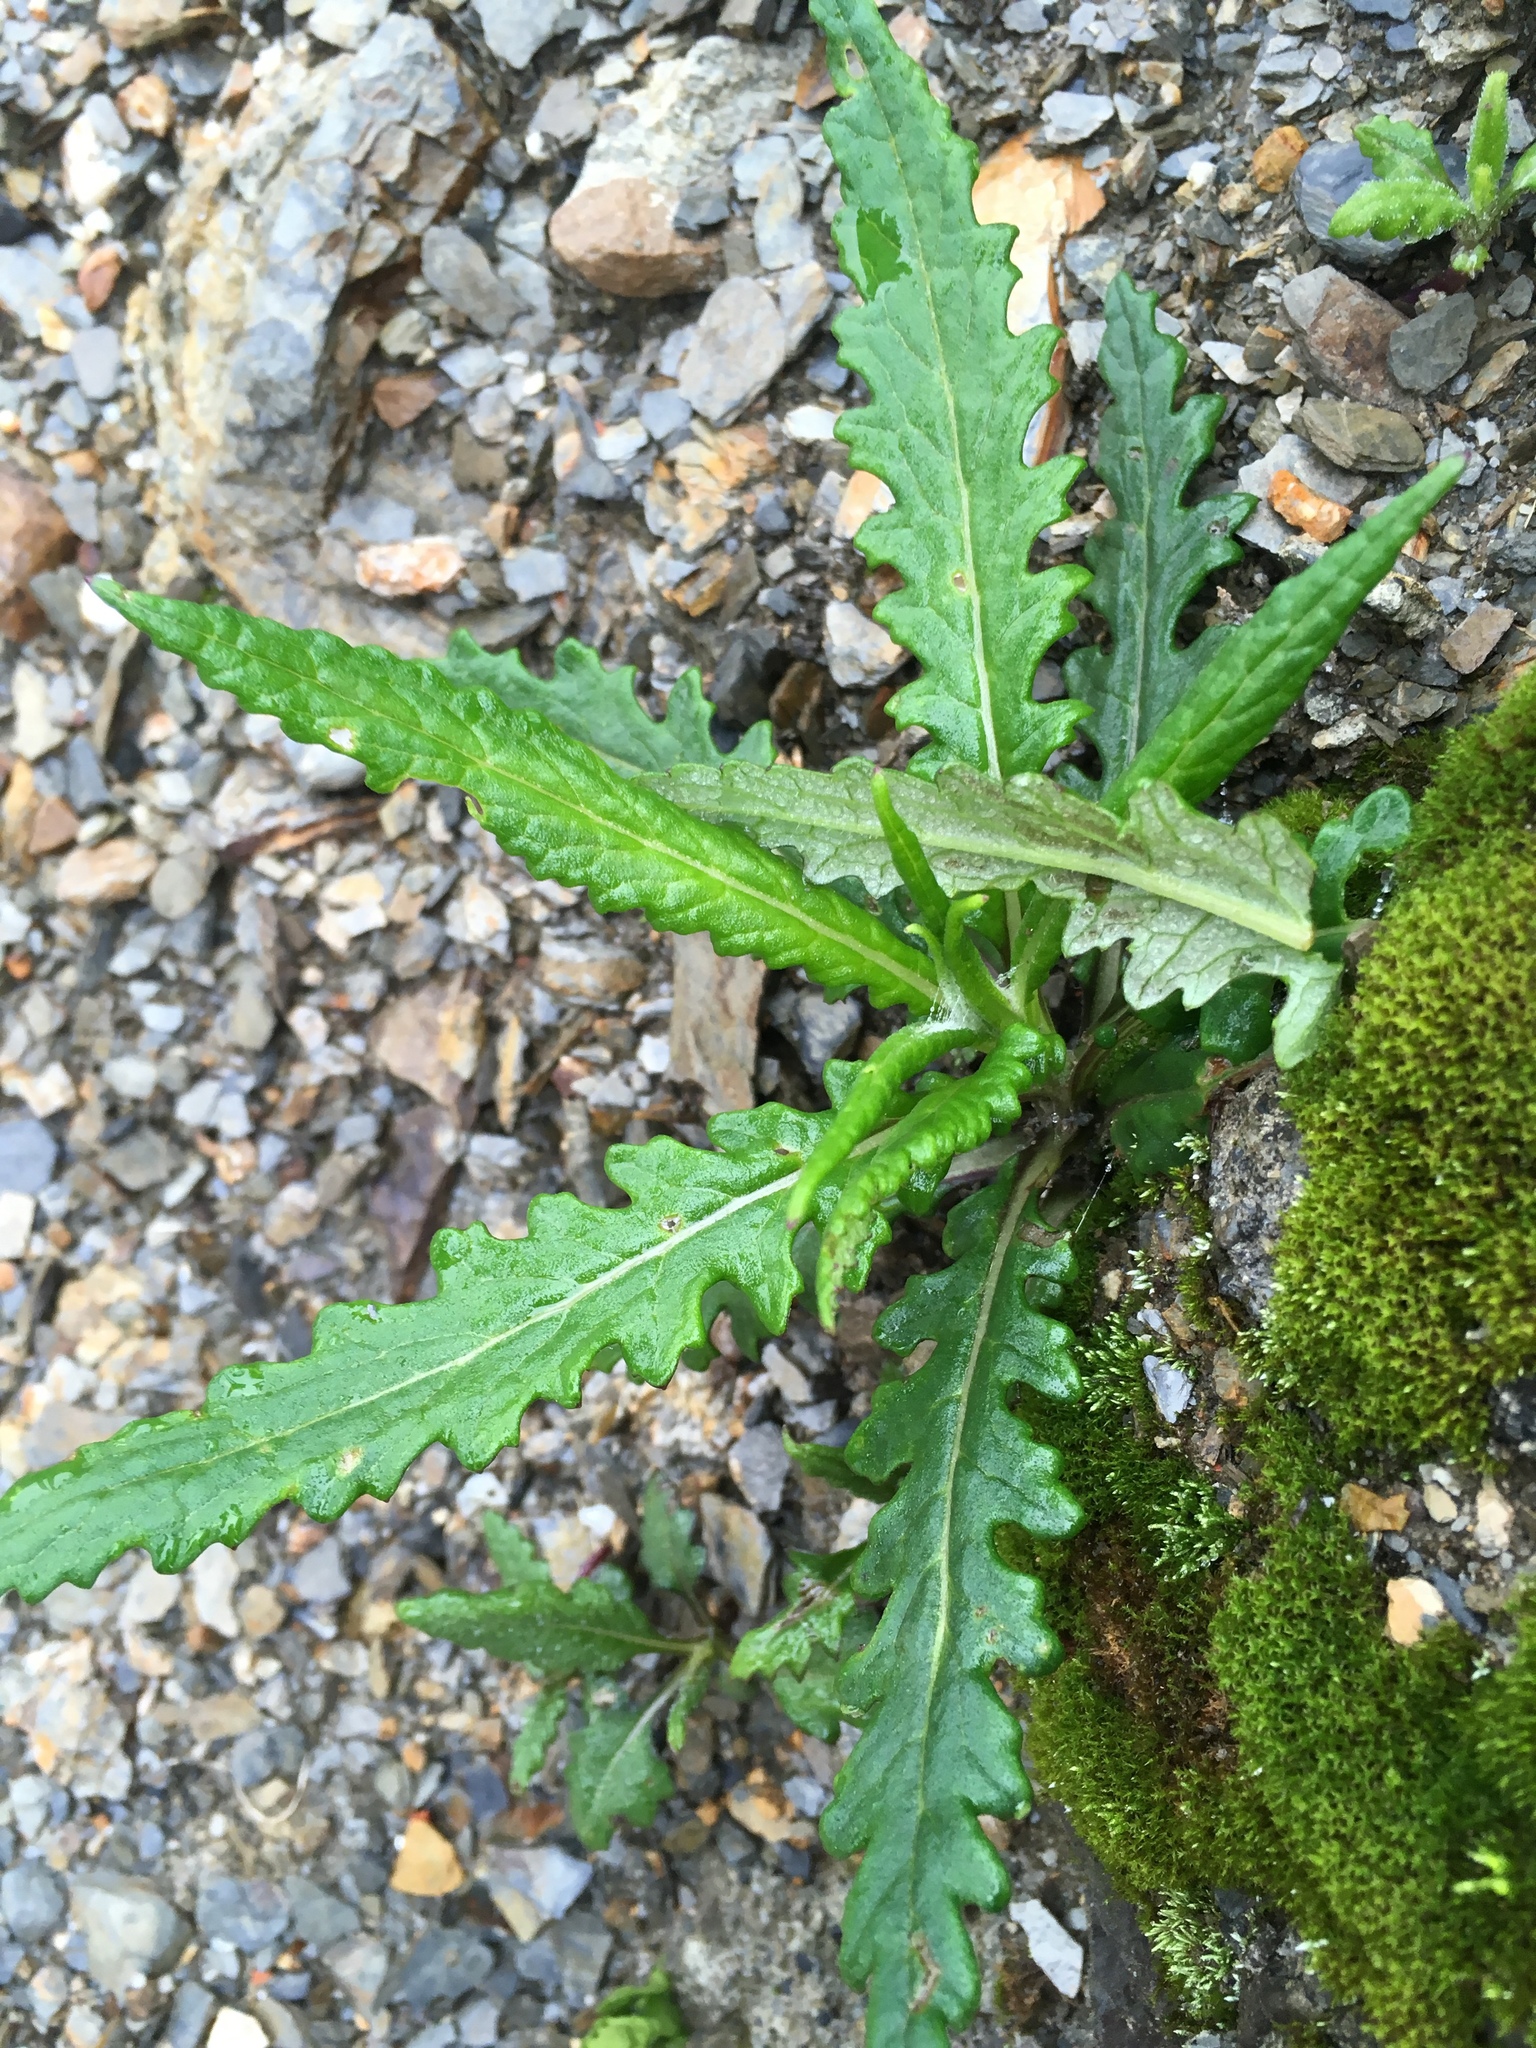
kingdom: Plantae
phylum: Tracheophyta
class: Magnoliopsida
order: Asterales
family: Asteraceae
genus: Jacobaea
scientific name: Jacobaea morrisonensis
